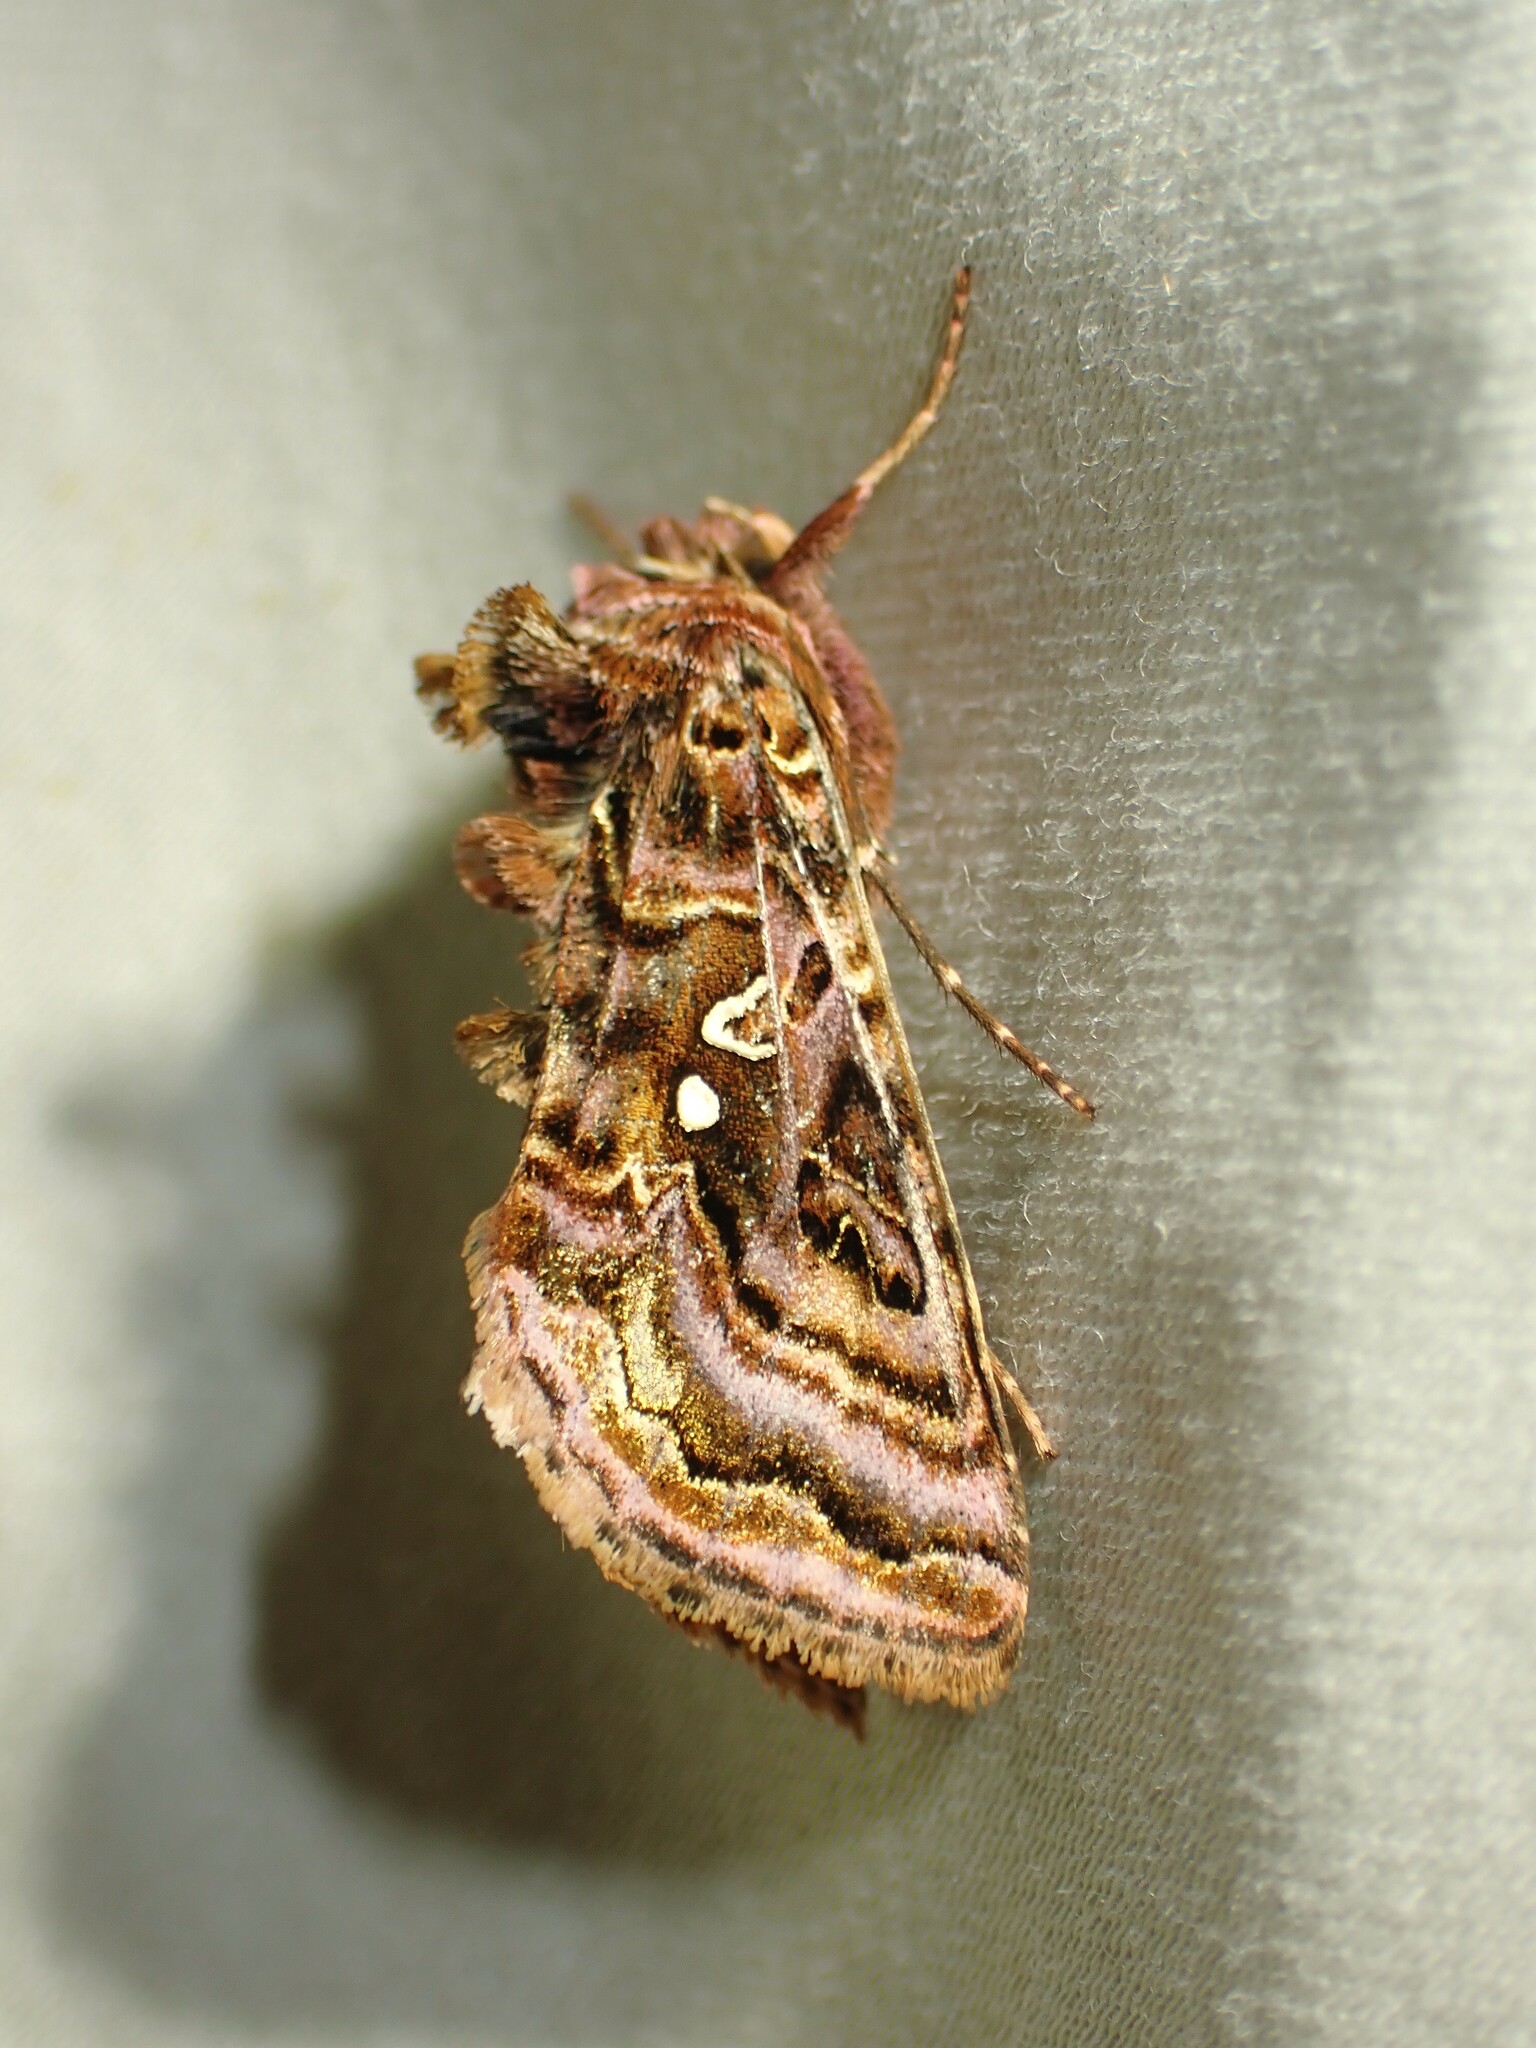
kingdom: Animalia
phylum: Arthropoda
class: Insecta
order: Lepidoptera
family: Noctuidae
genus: Autographa
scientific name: Autographa mappa
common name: Wavy chestnut y moth
